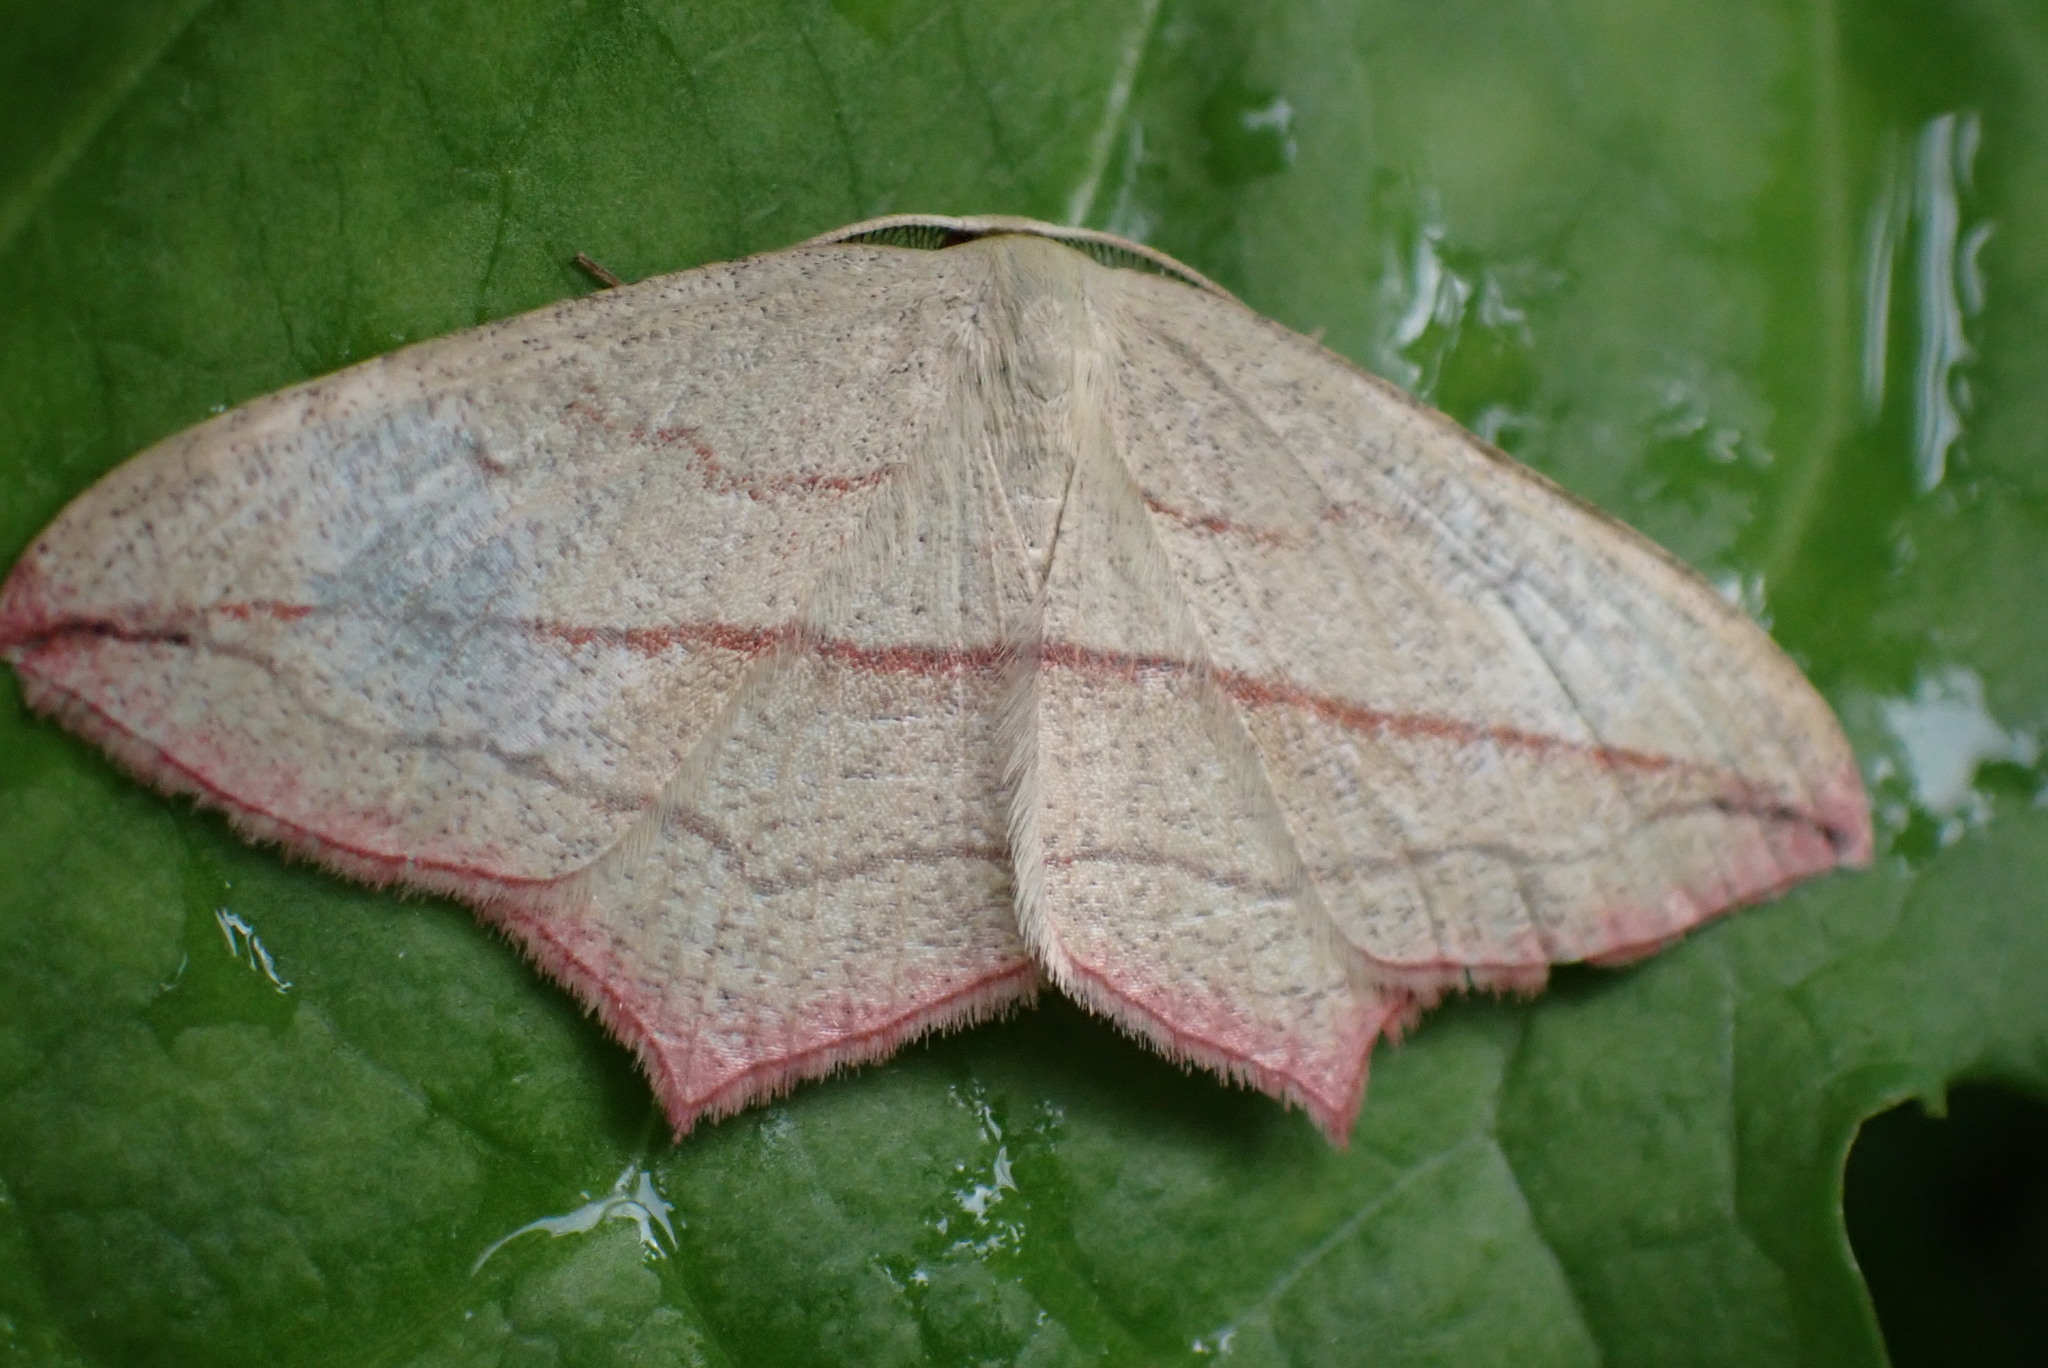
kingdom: Animalia
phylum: Arthropoda
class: Insecta
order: Lepidoptera
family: Geometridae
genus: Timandra
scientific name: Timandra comae
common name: Blood-vein
